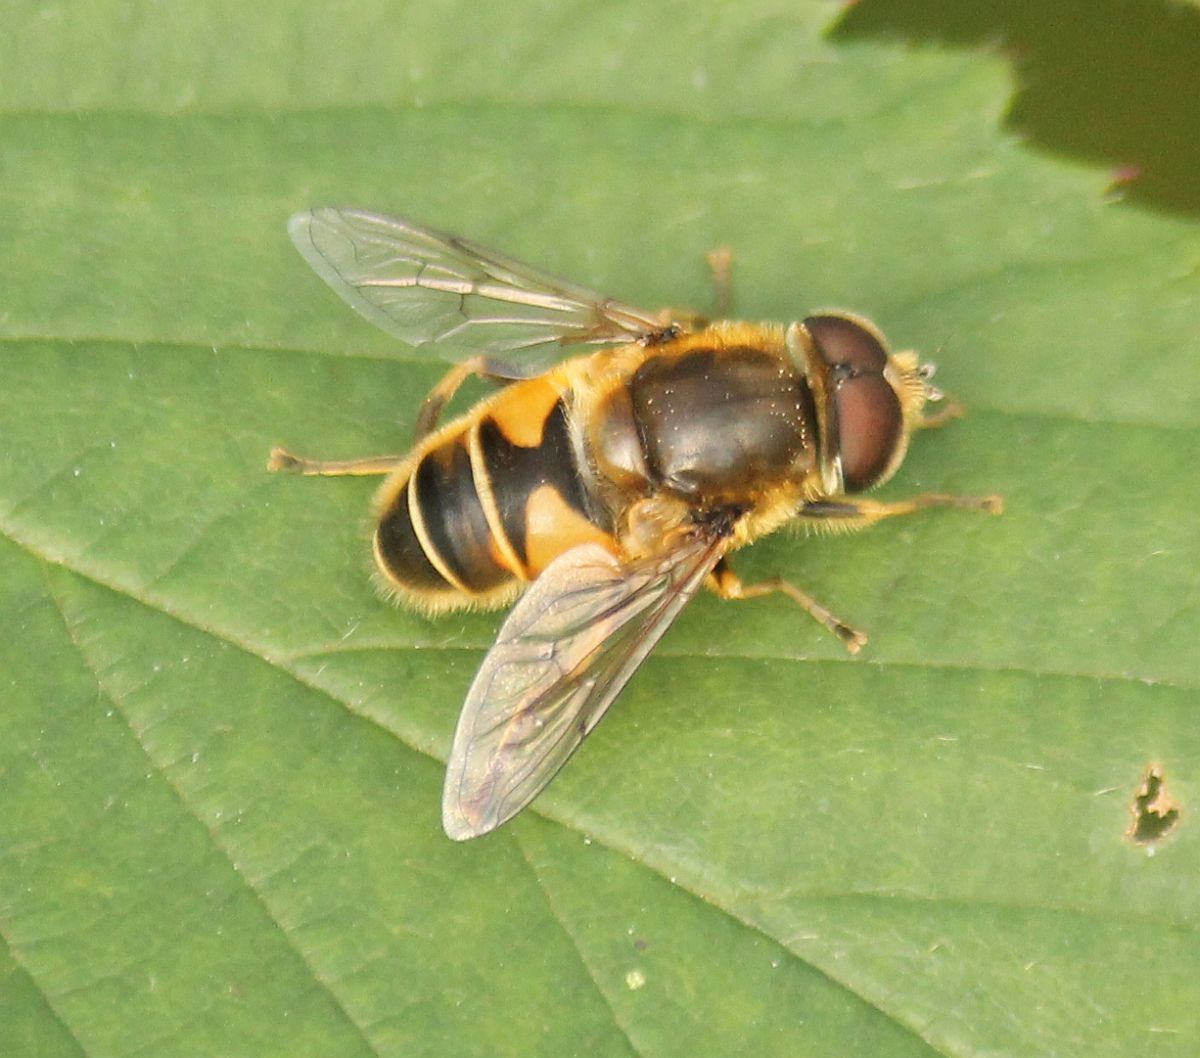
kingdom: Animalia
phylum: Arthropoda
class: Insecta
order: Diptera
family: Syrphidae
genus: Eristalis
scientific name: Eristalis nemorum
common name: Orange-spined drone fly
